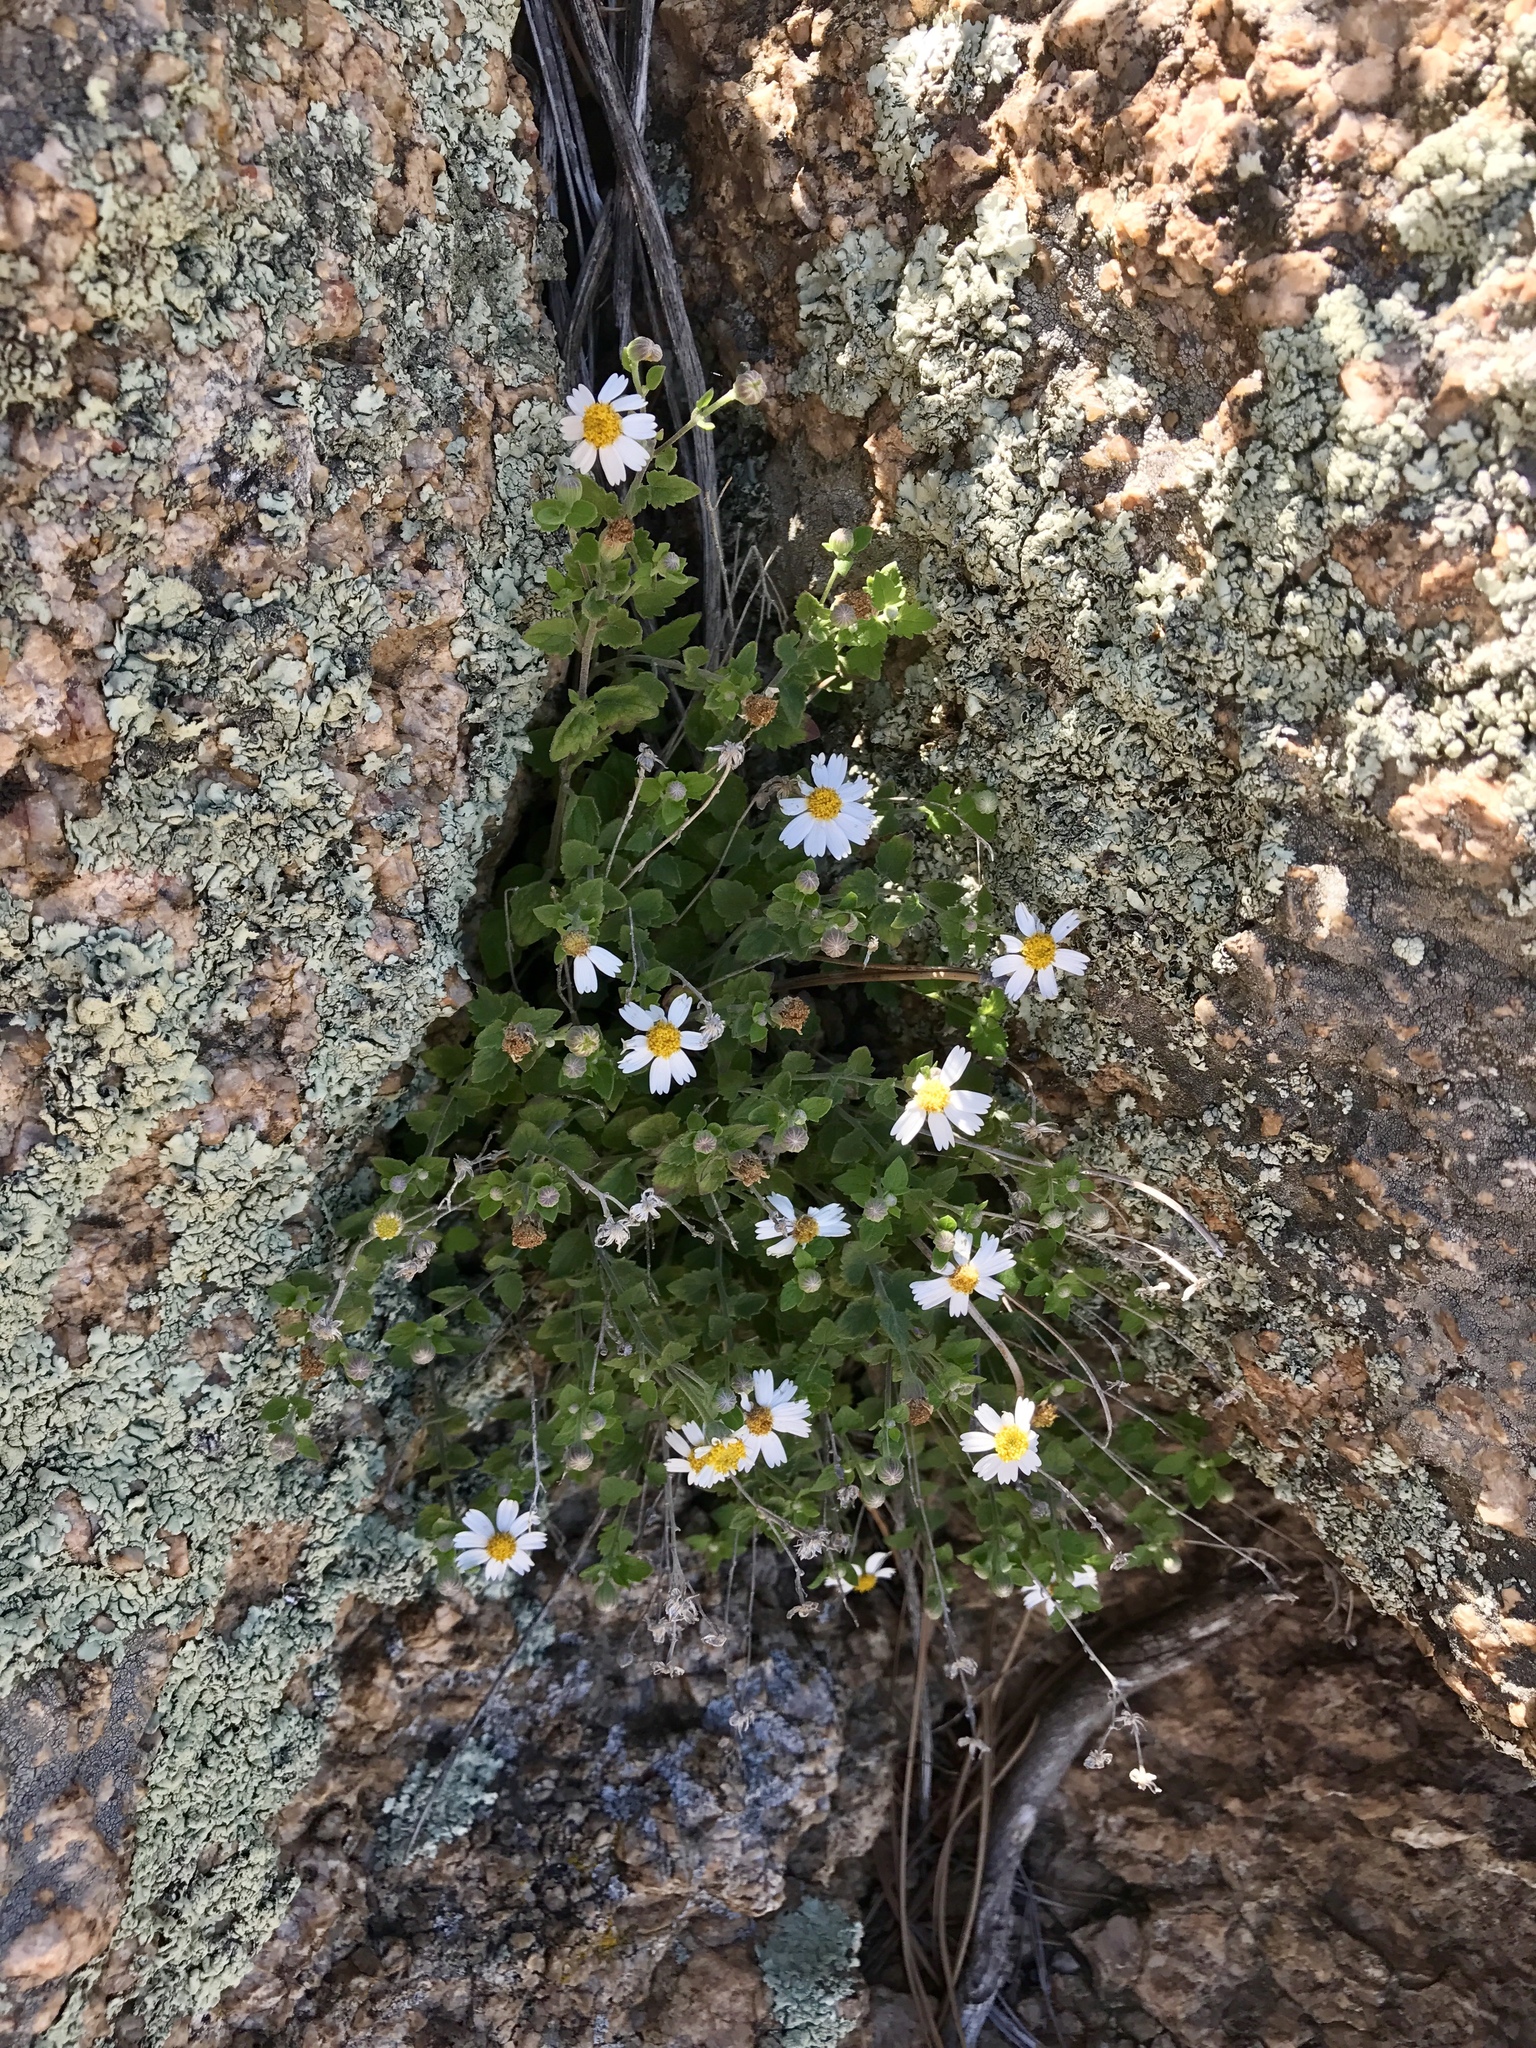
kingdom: Plantae
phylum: Tracheophyta
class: Magnoliopsida
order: Asterales
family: Asteraceae
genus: Laphamia
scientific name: Laphamia emoryi
